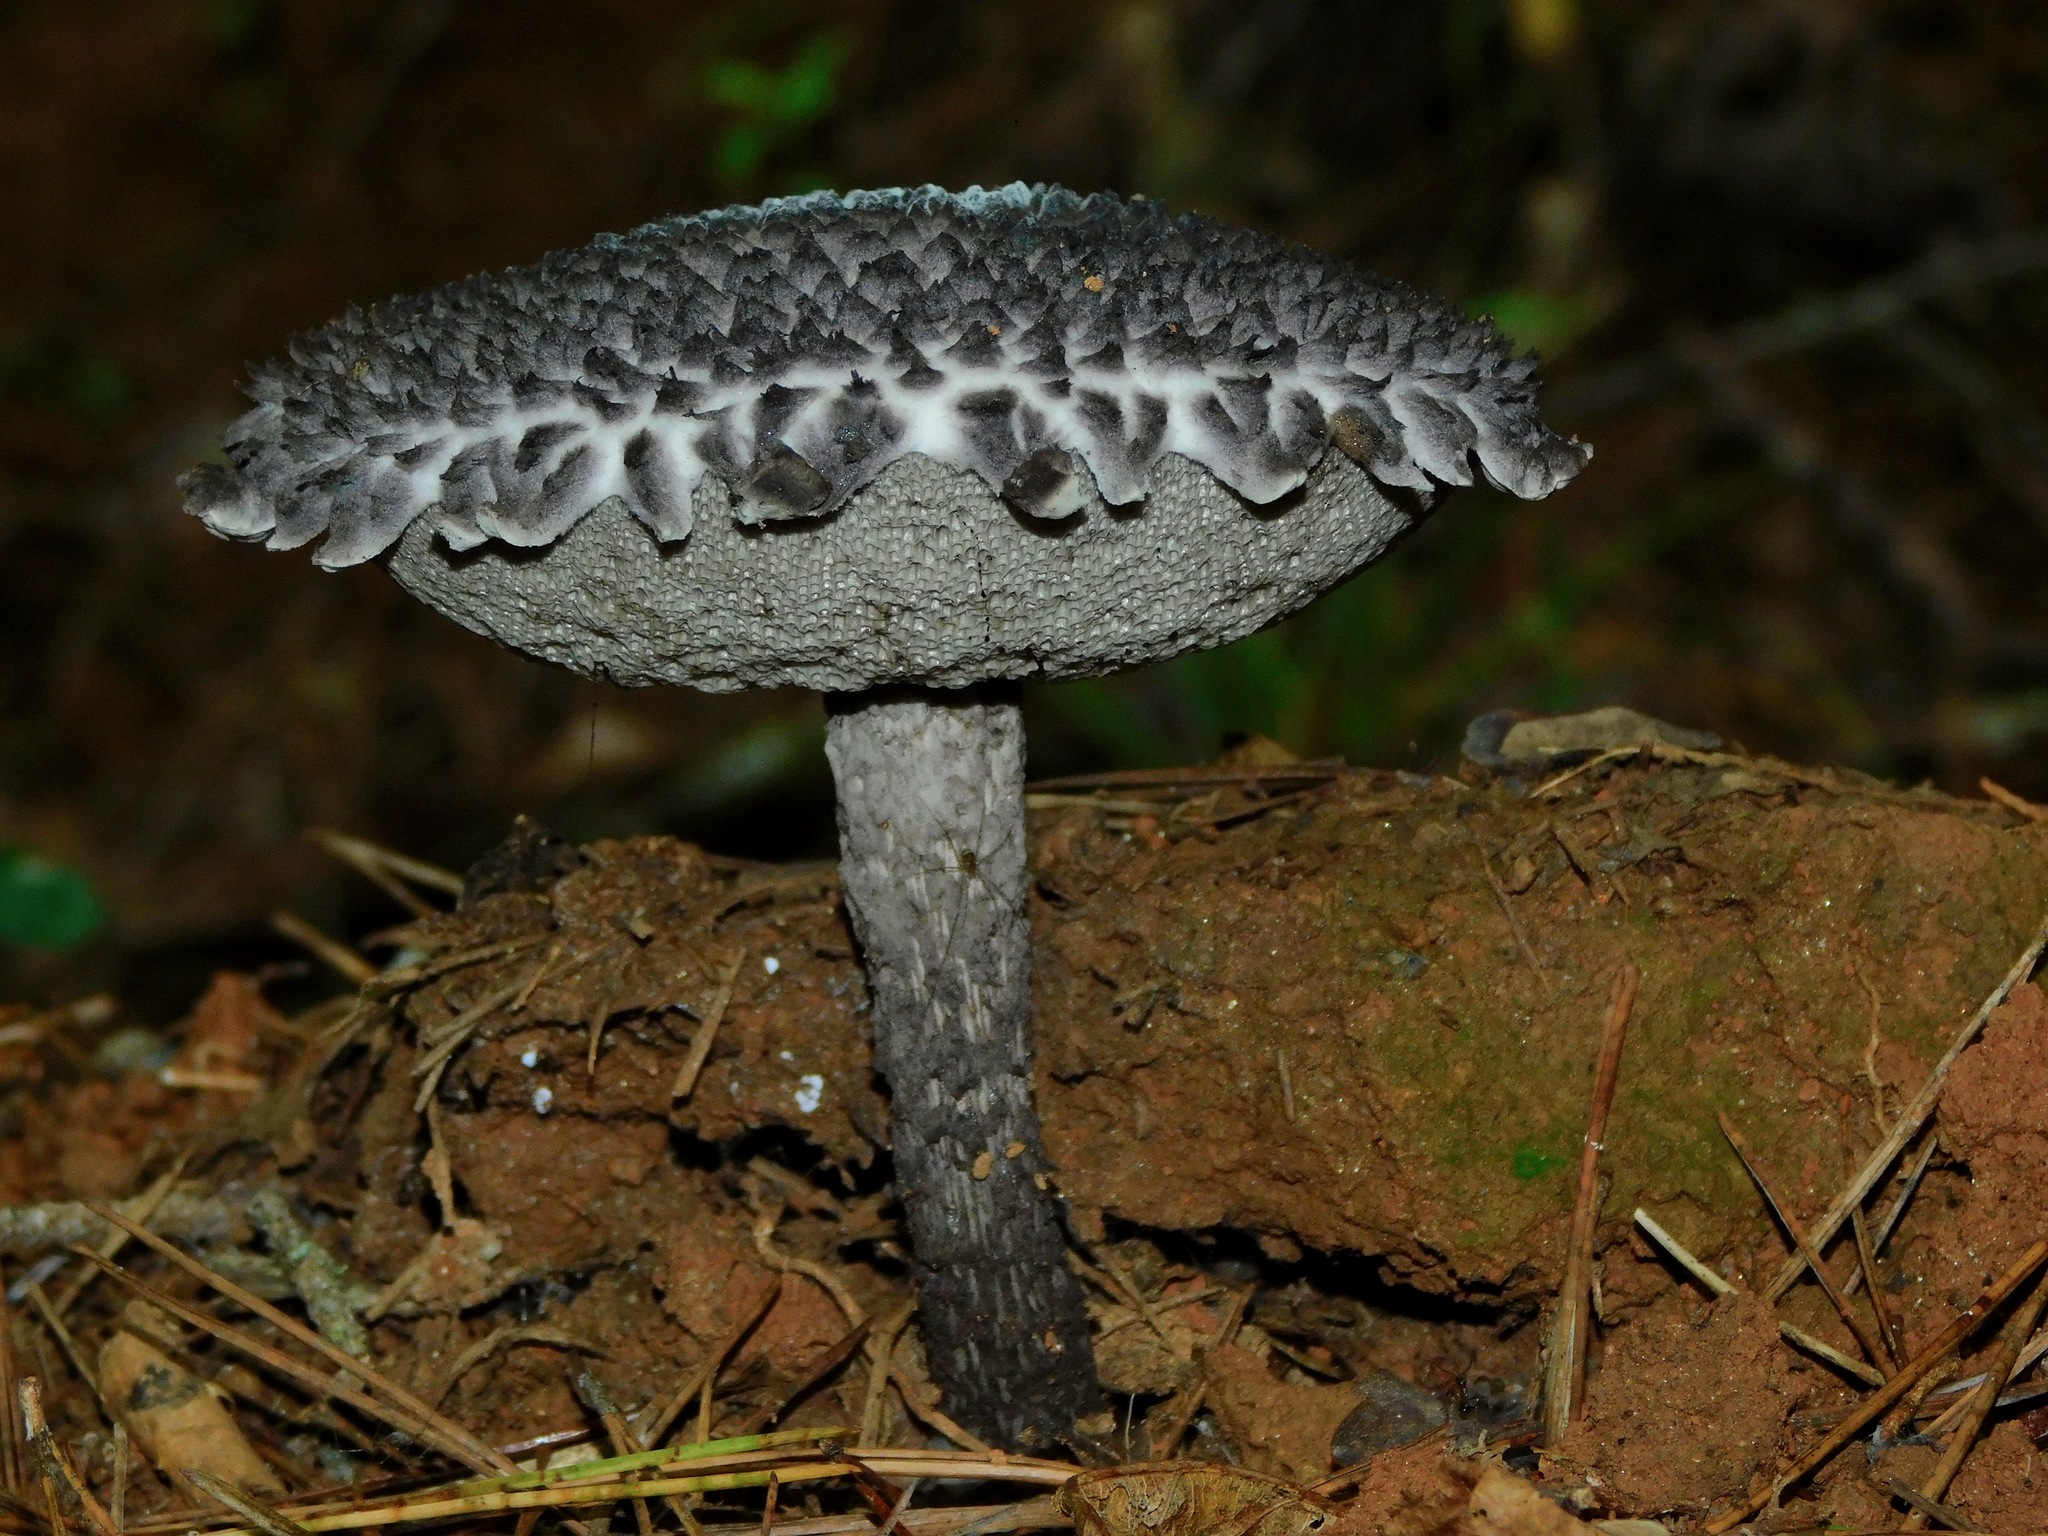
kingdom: Fungi
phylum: Basidiomycota
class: Agaricomycetes
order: Boletales
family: Boletaceae
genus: Strobilomyces
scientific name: Strobilomyces strobilaceus
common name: Old man of the woods
